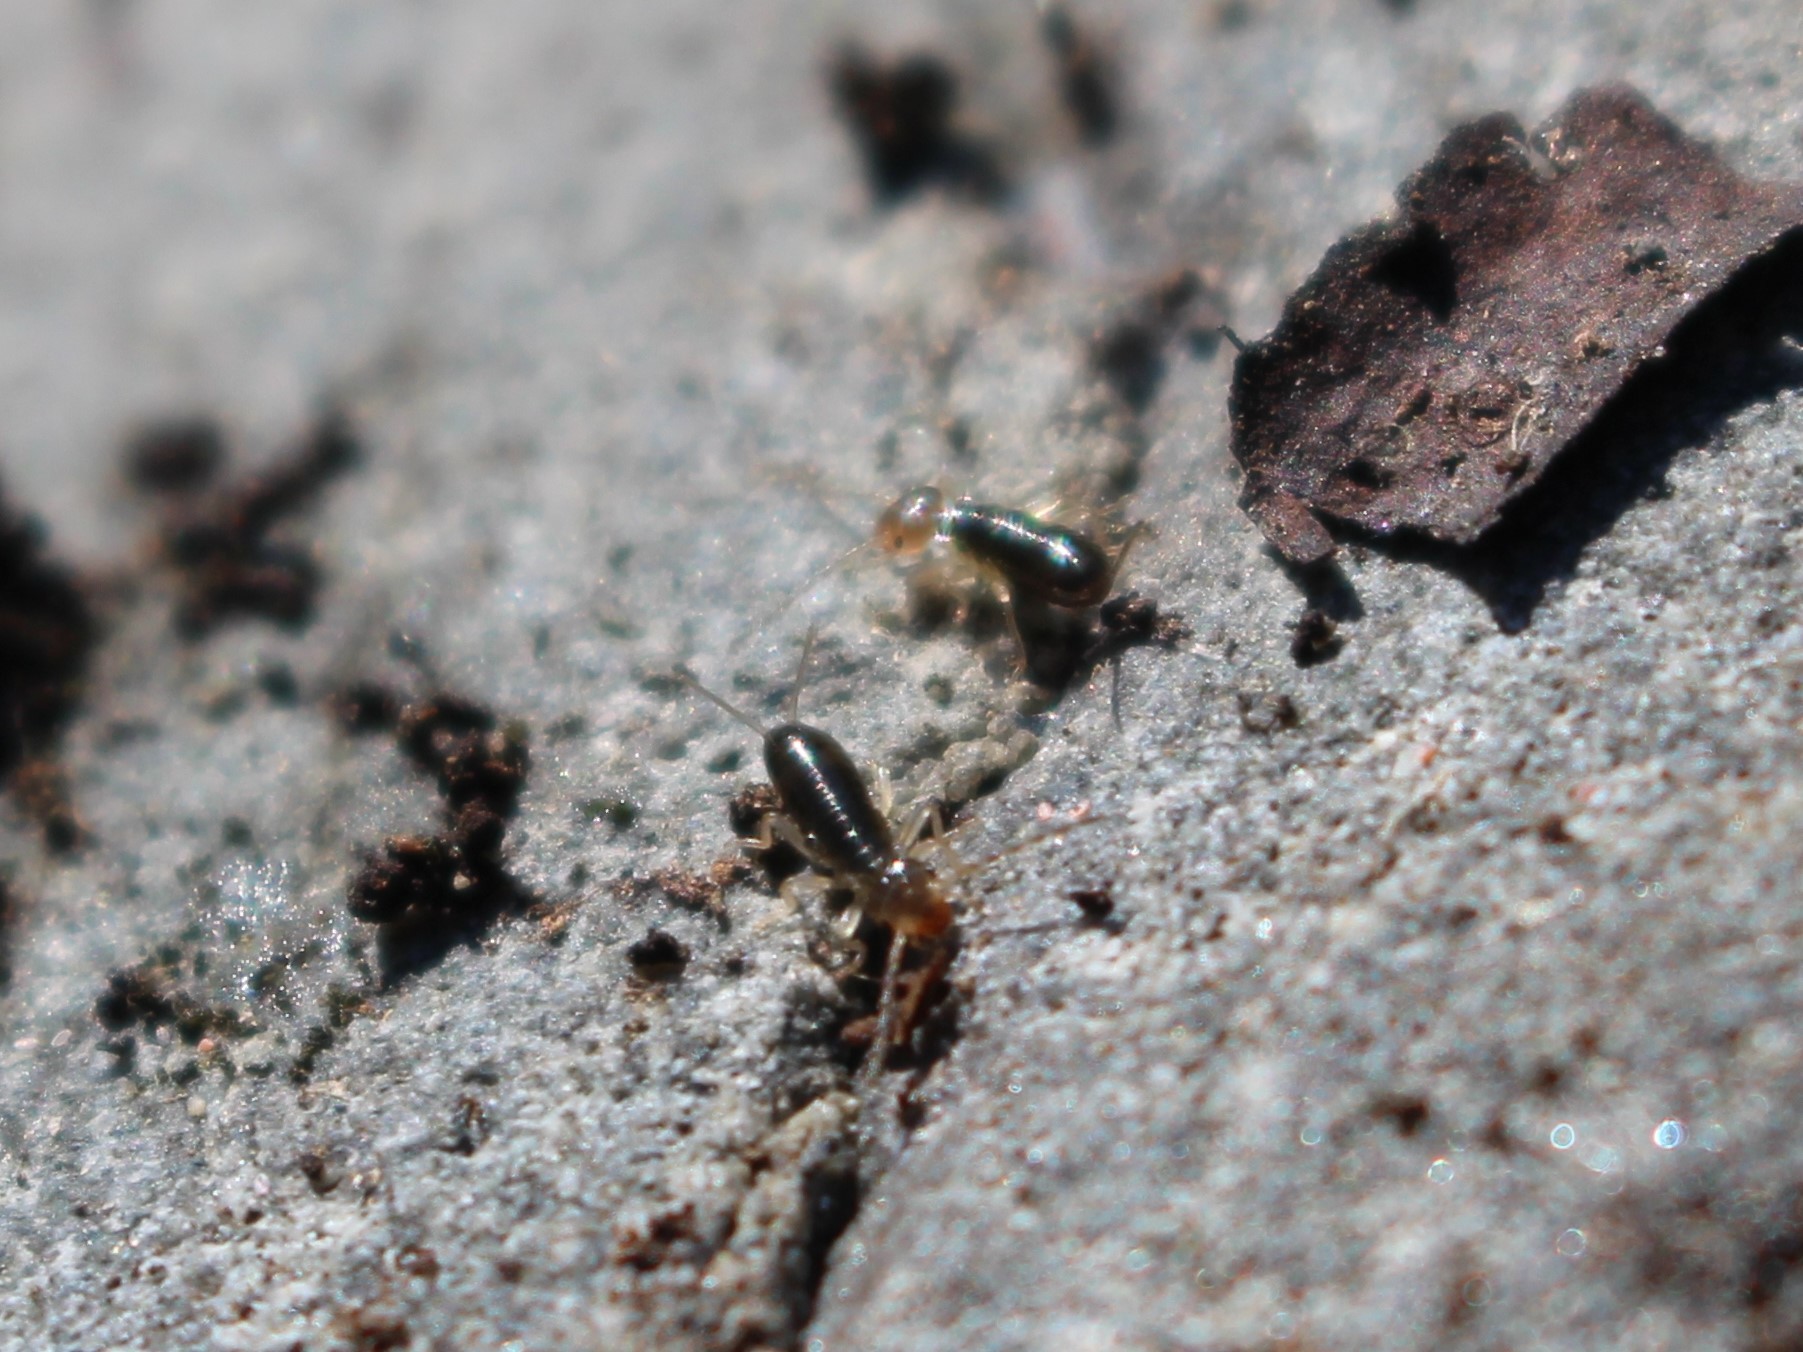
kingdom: Animalia
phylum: Arthropoda
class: Insecta
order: Dermaptera
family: Forficulidae
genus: Forficula
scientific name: Forficula
